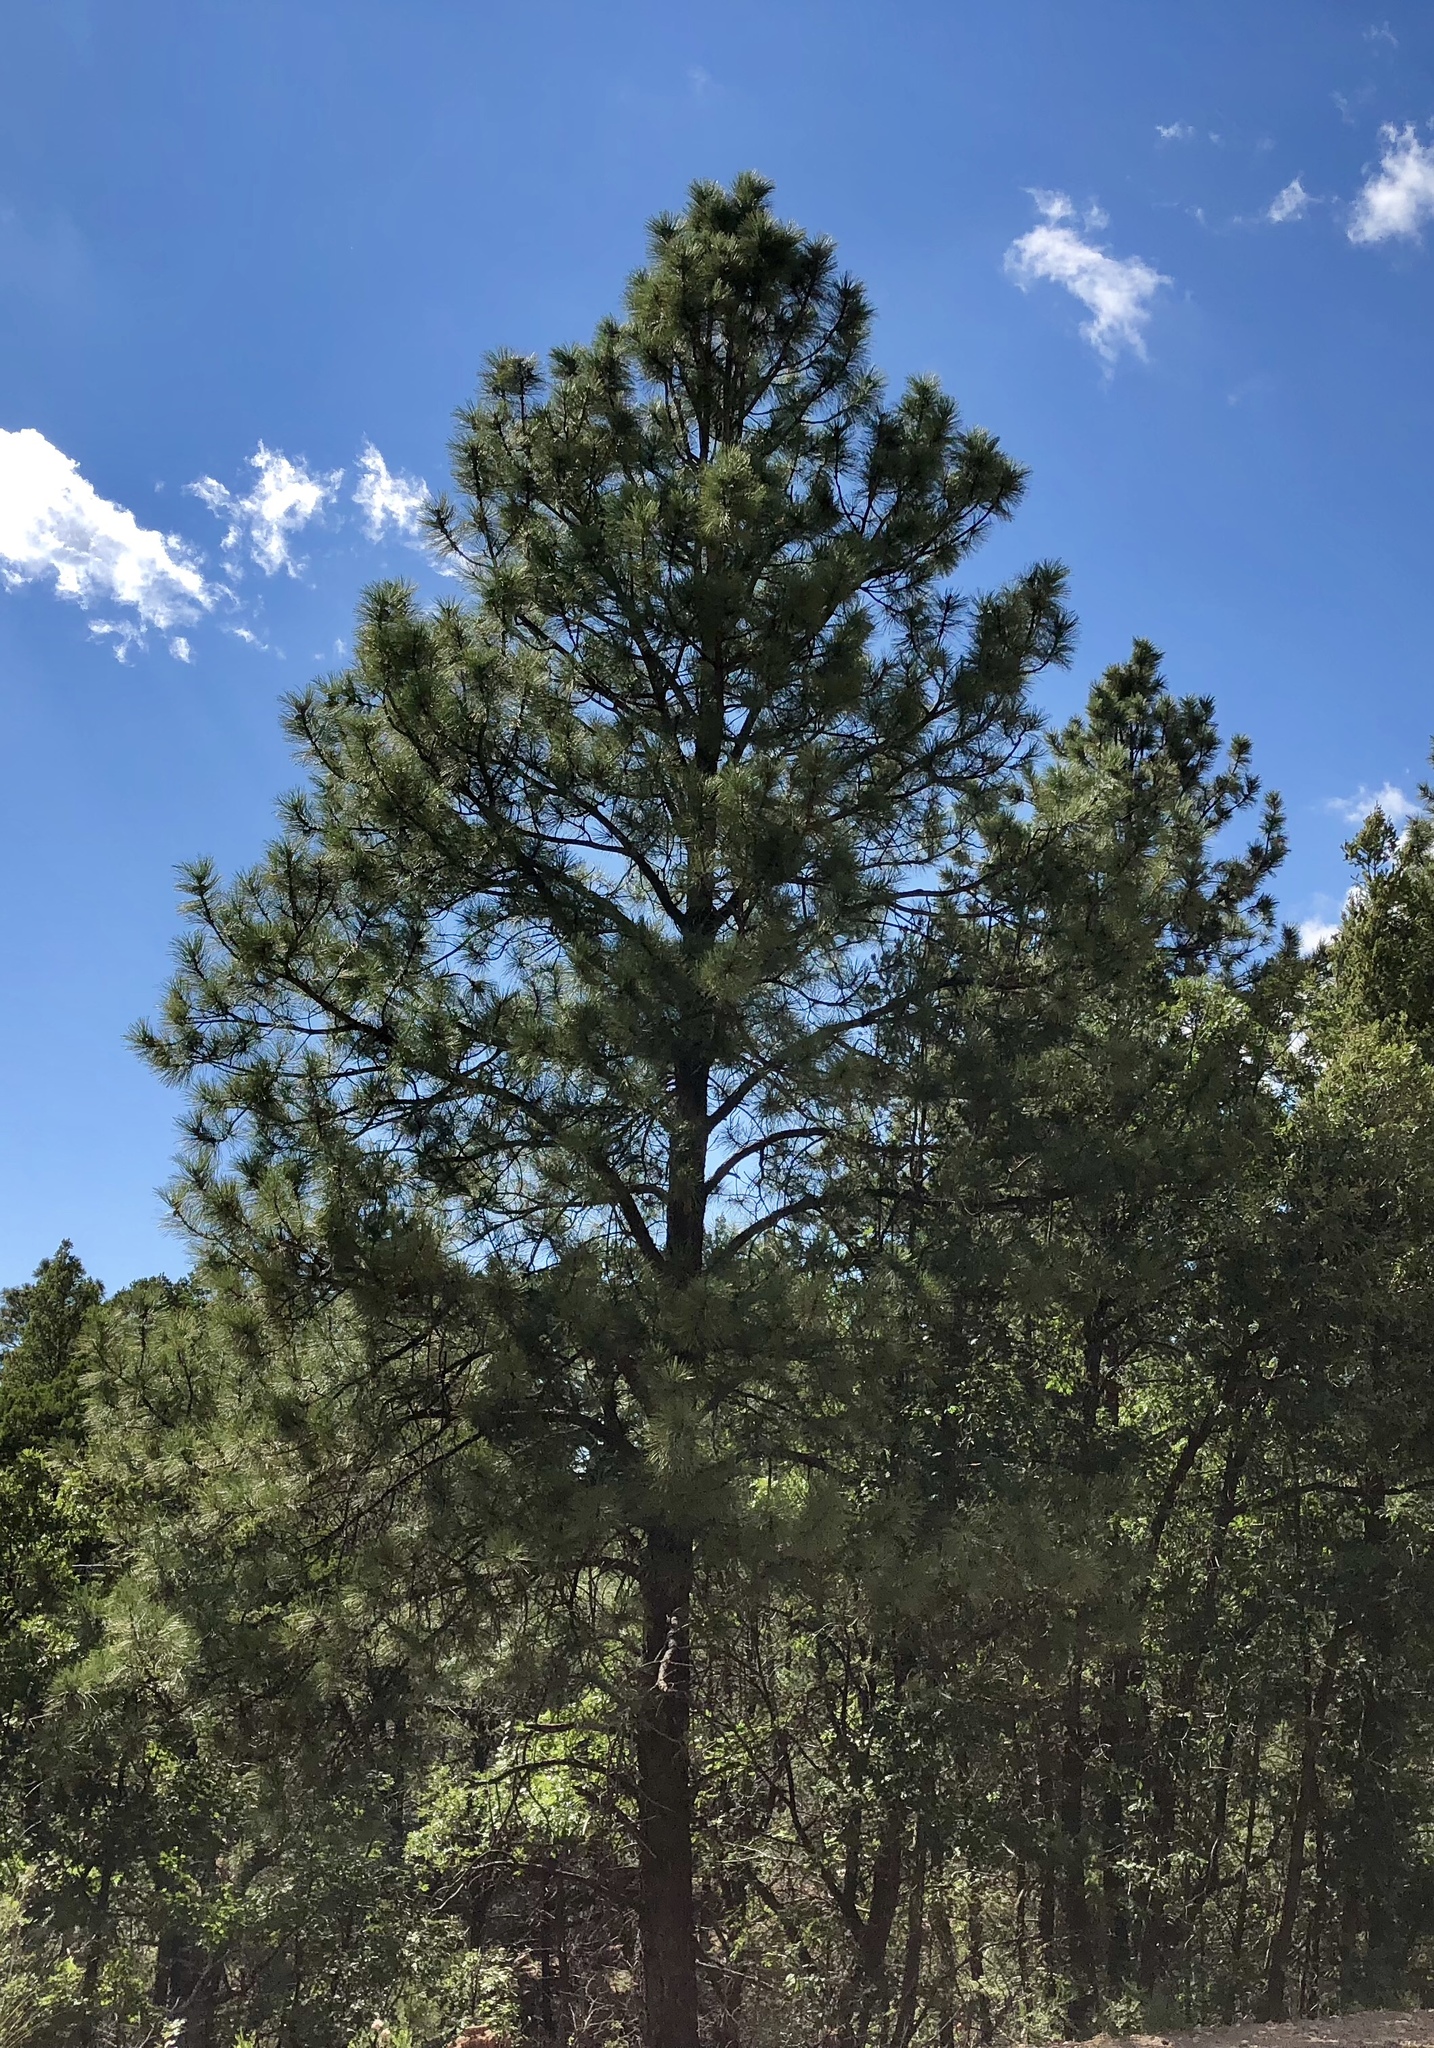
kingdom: Plantae
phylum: Tracheophyta
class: Pinopsida
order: Pinales
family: Pinaceae
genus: Pinus
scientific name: Pinus ponderosa
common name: Western yellow-pine
